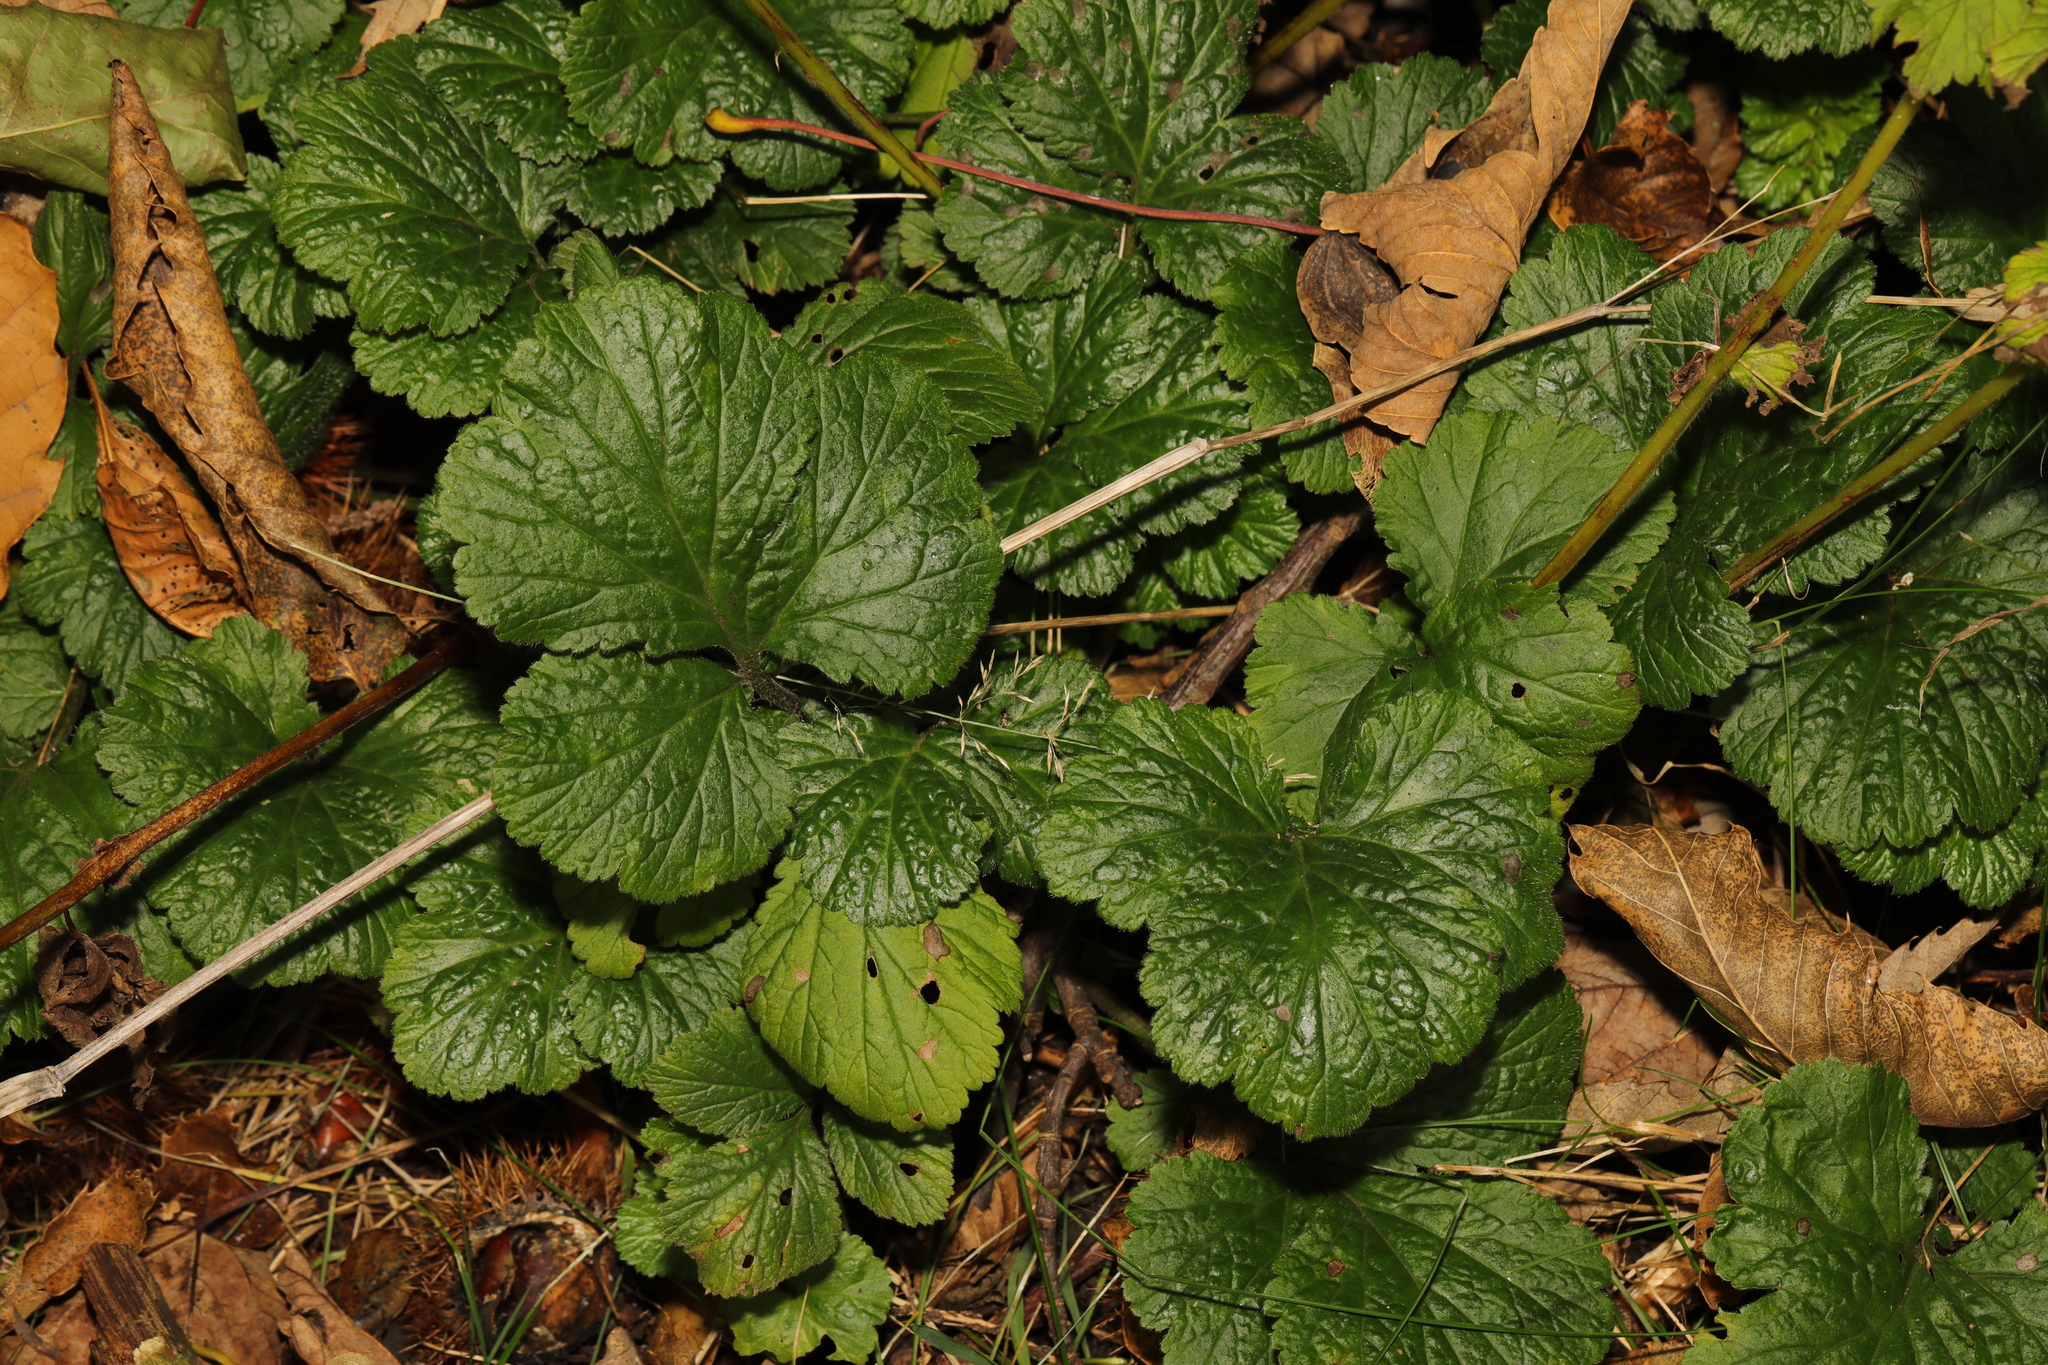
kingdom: Plantae
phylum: Tracheophyta
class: Magnoliopsida
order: Rosales
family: Rosaceae
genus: Geum
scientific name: Geum urbanum
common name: Wood avens
